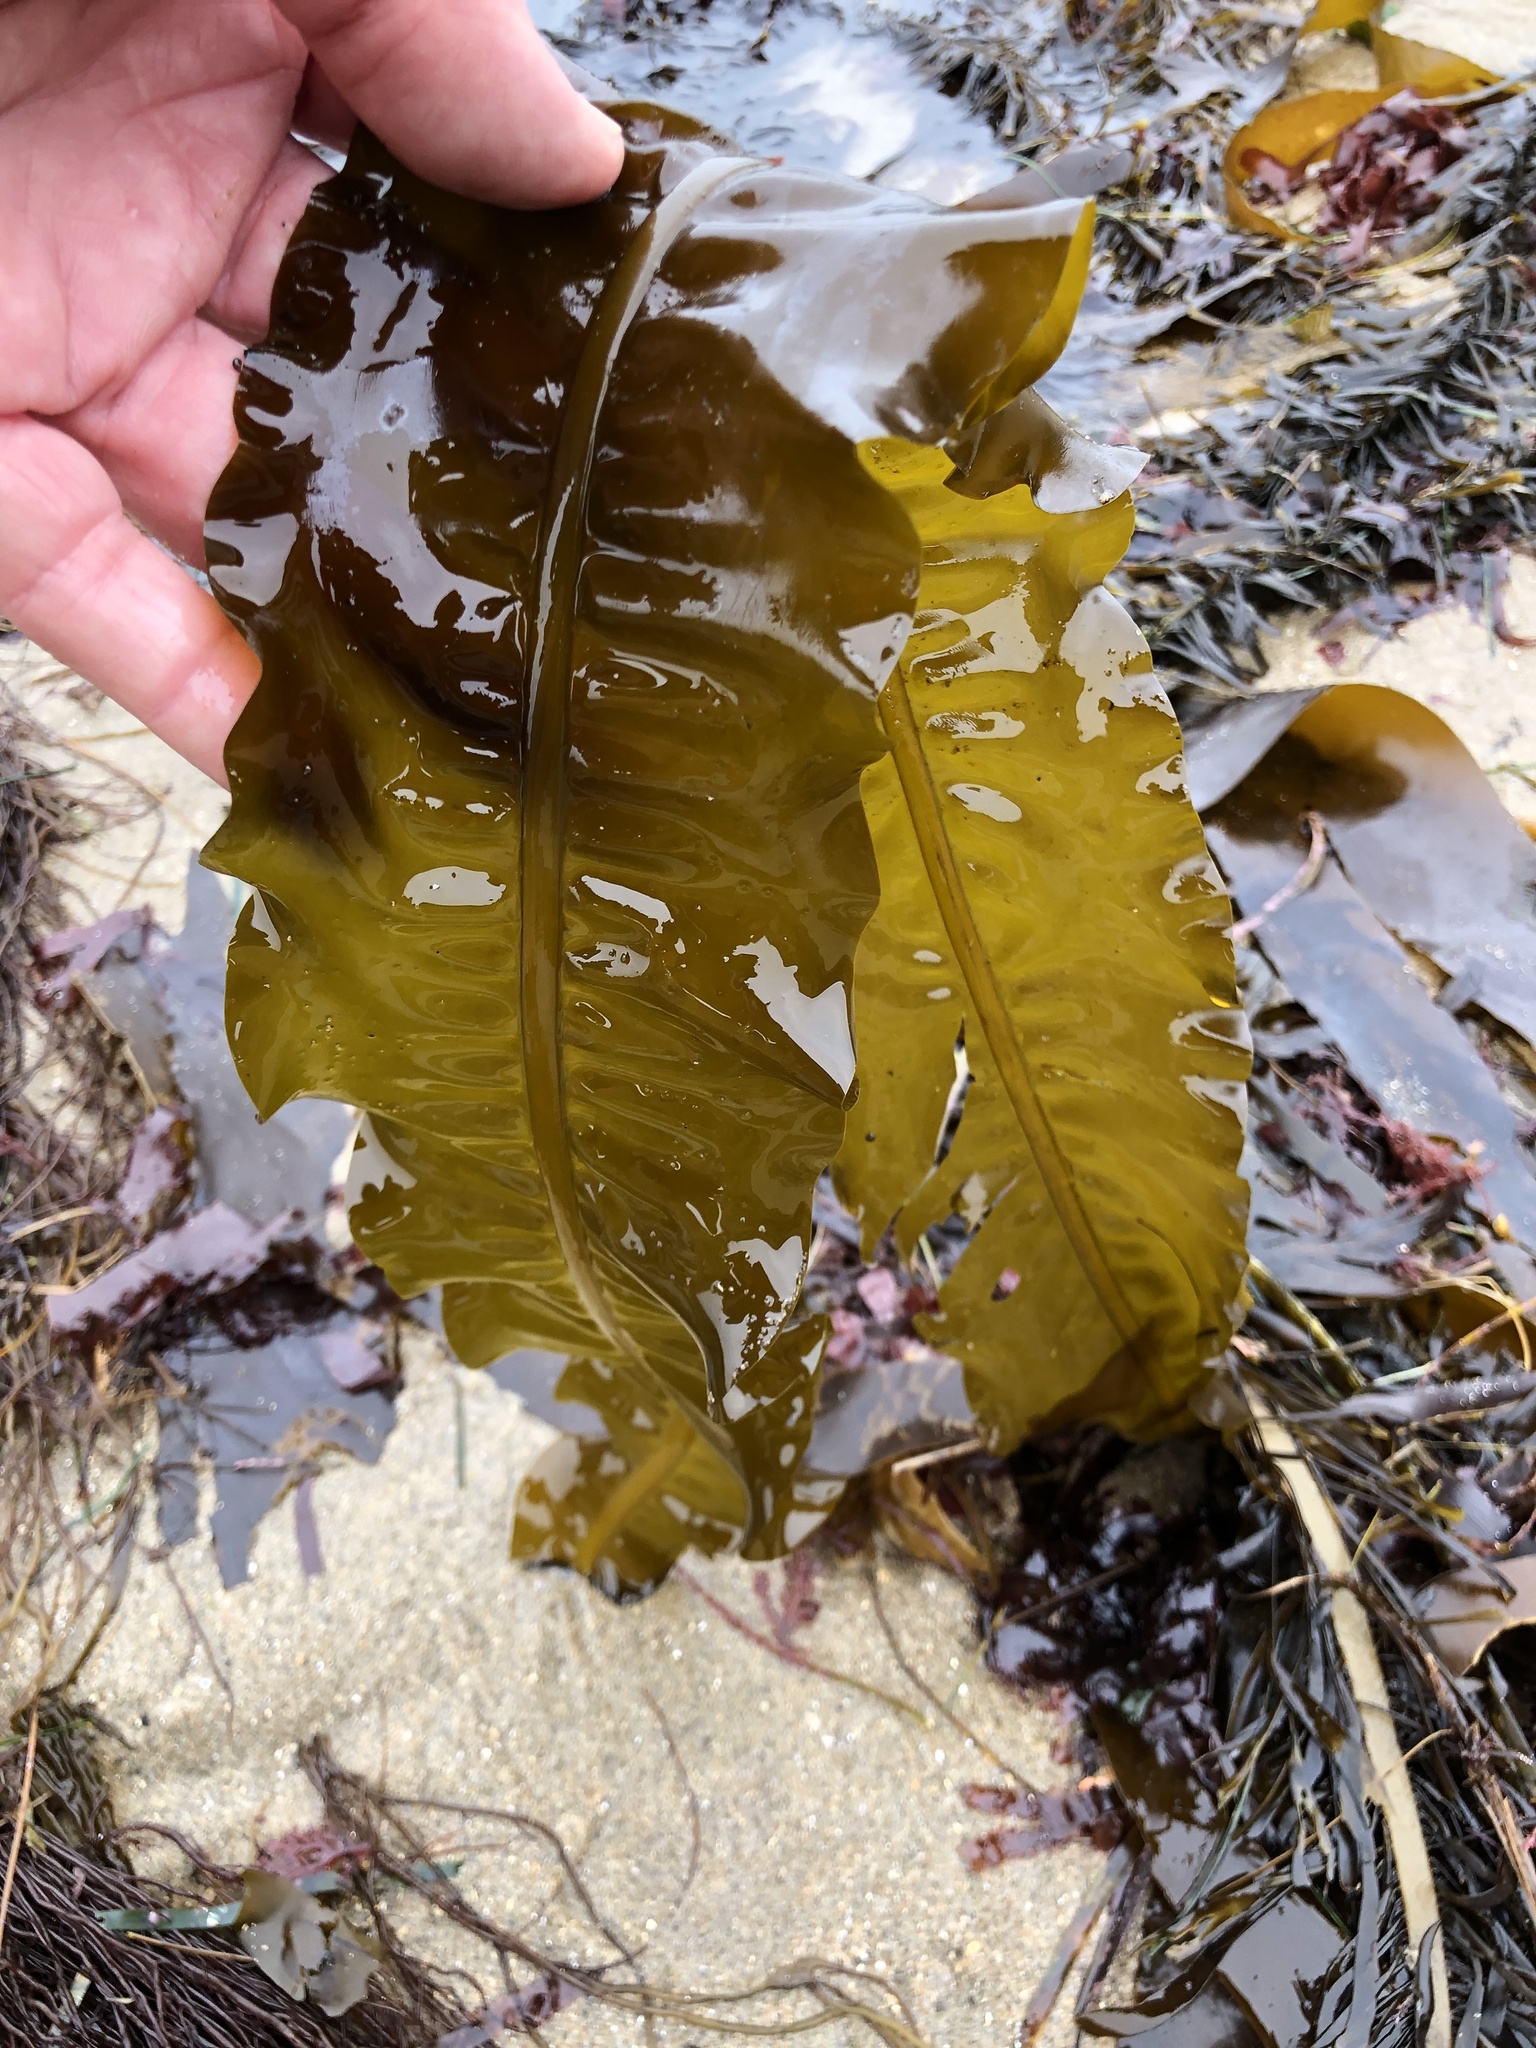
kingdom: Chromista
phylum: Ochrophyta
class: Phaeophyceae
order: Laminariales
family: Alariaceae
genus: Alaria
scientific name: Alaria marginata
